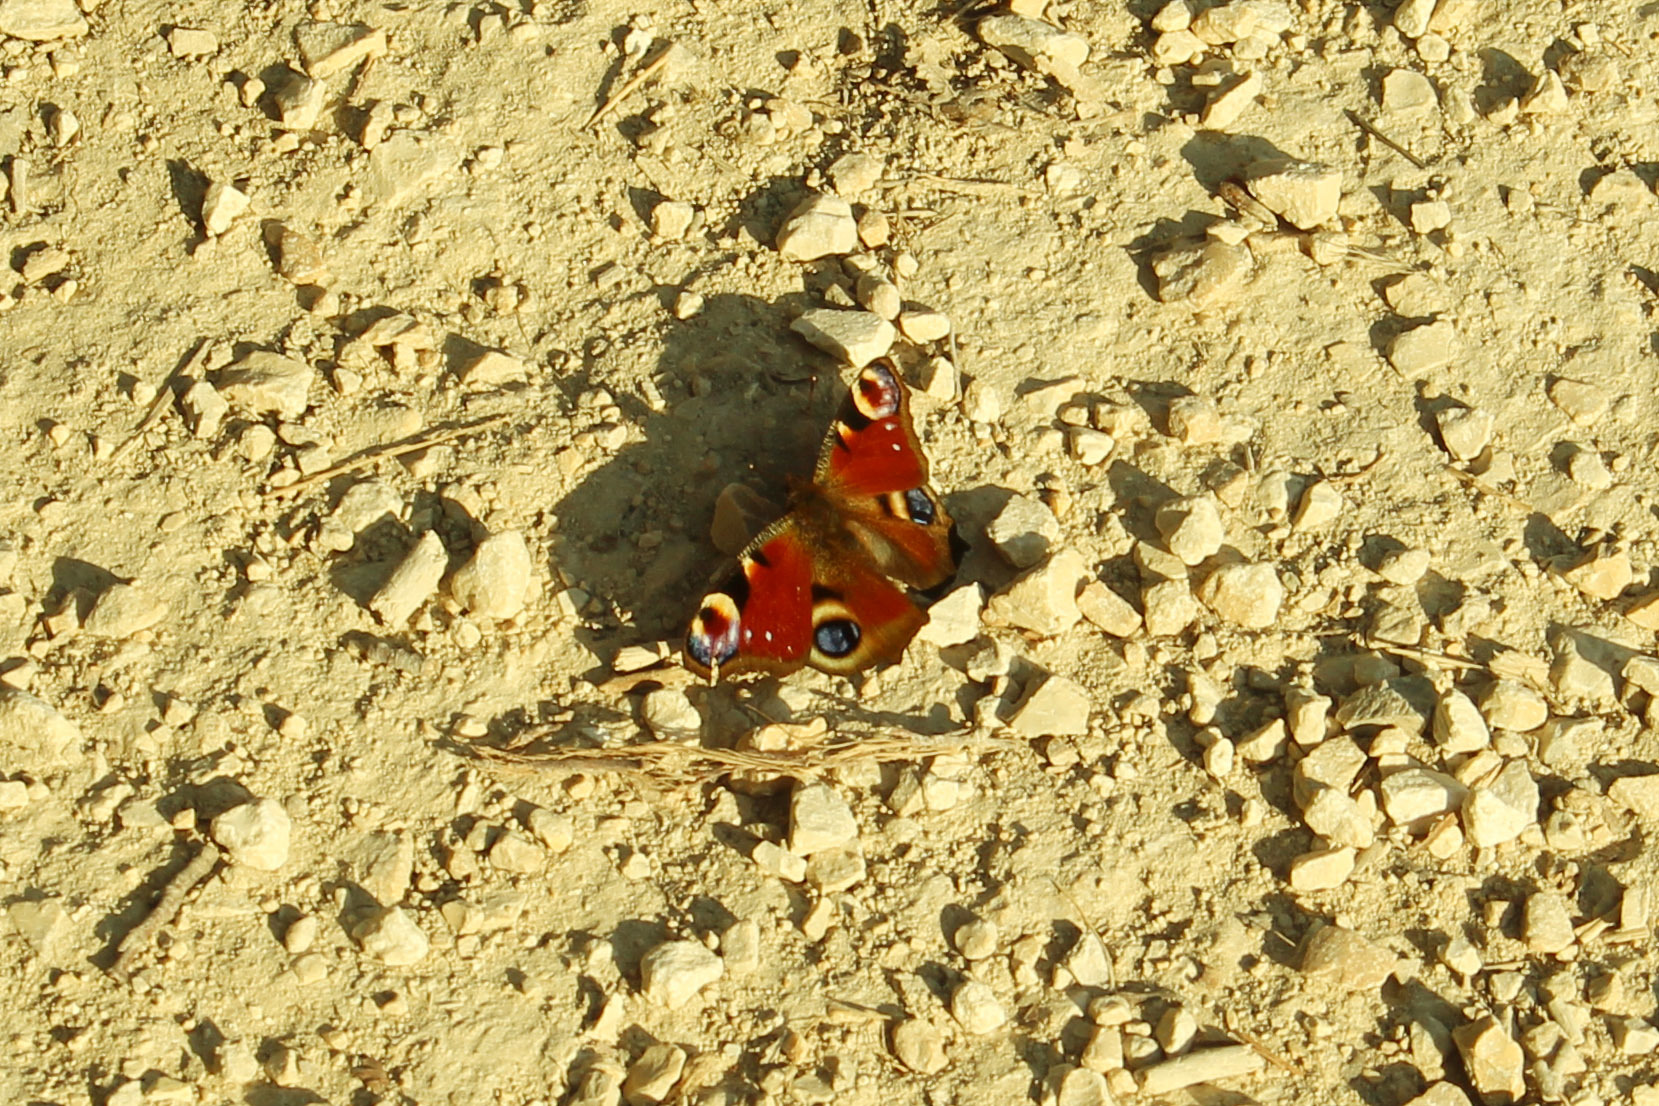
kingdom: Animalia
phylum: Arthropoda
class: Insecta
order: Lepidoptera
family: Nymphalidae
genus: Aglais
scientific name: Aglais io
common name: Peacock
